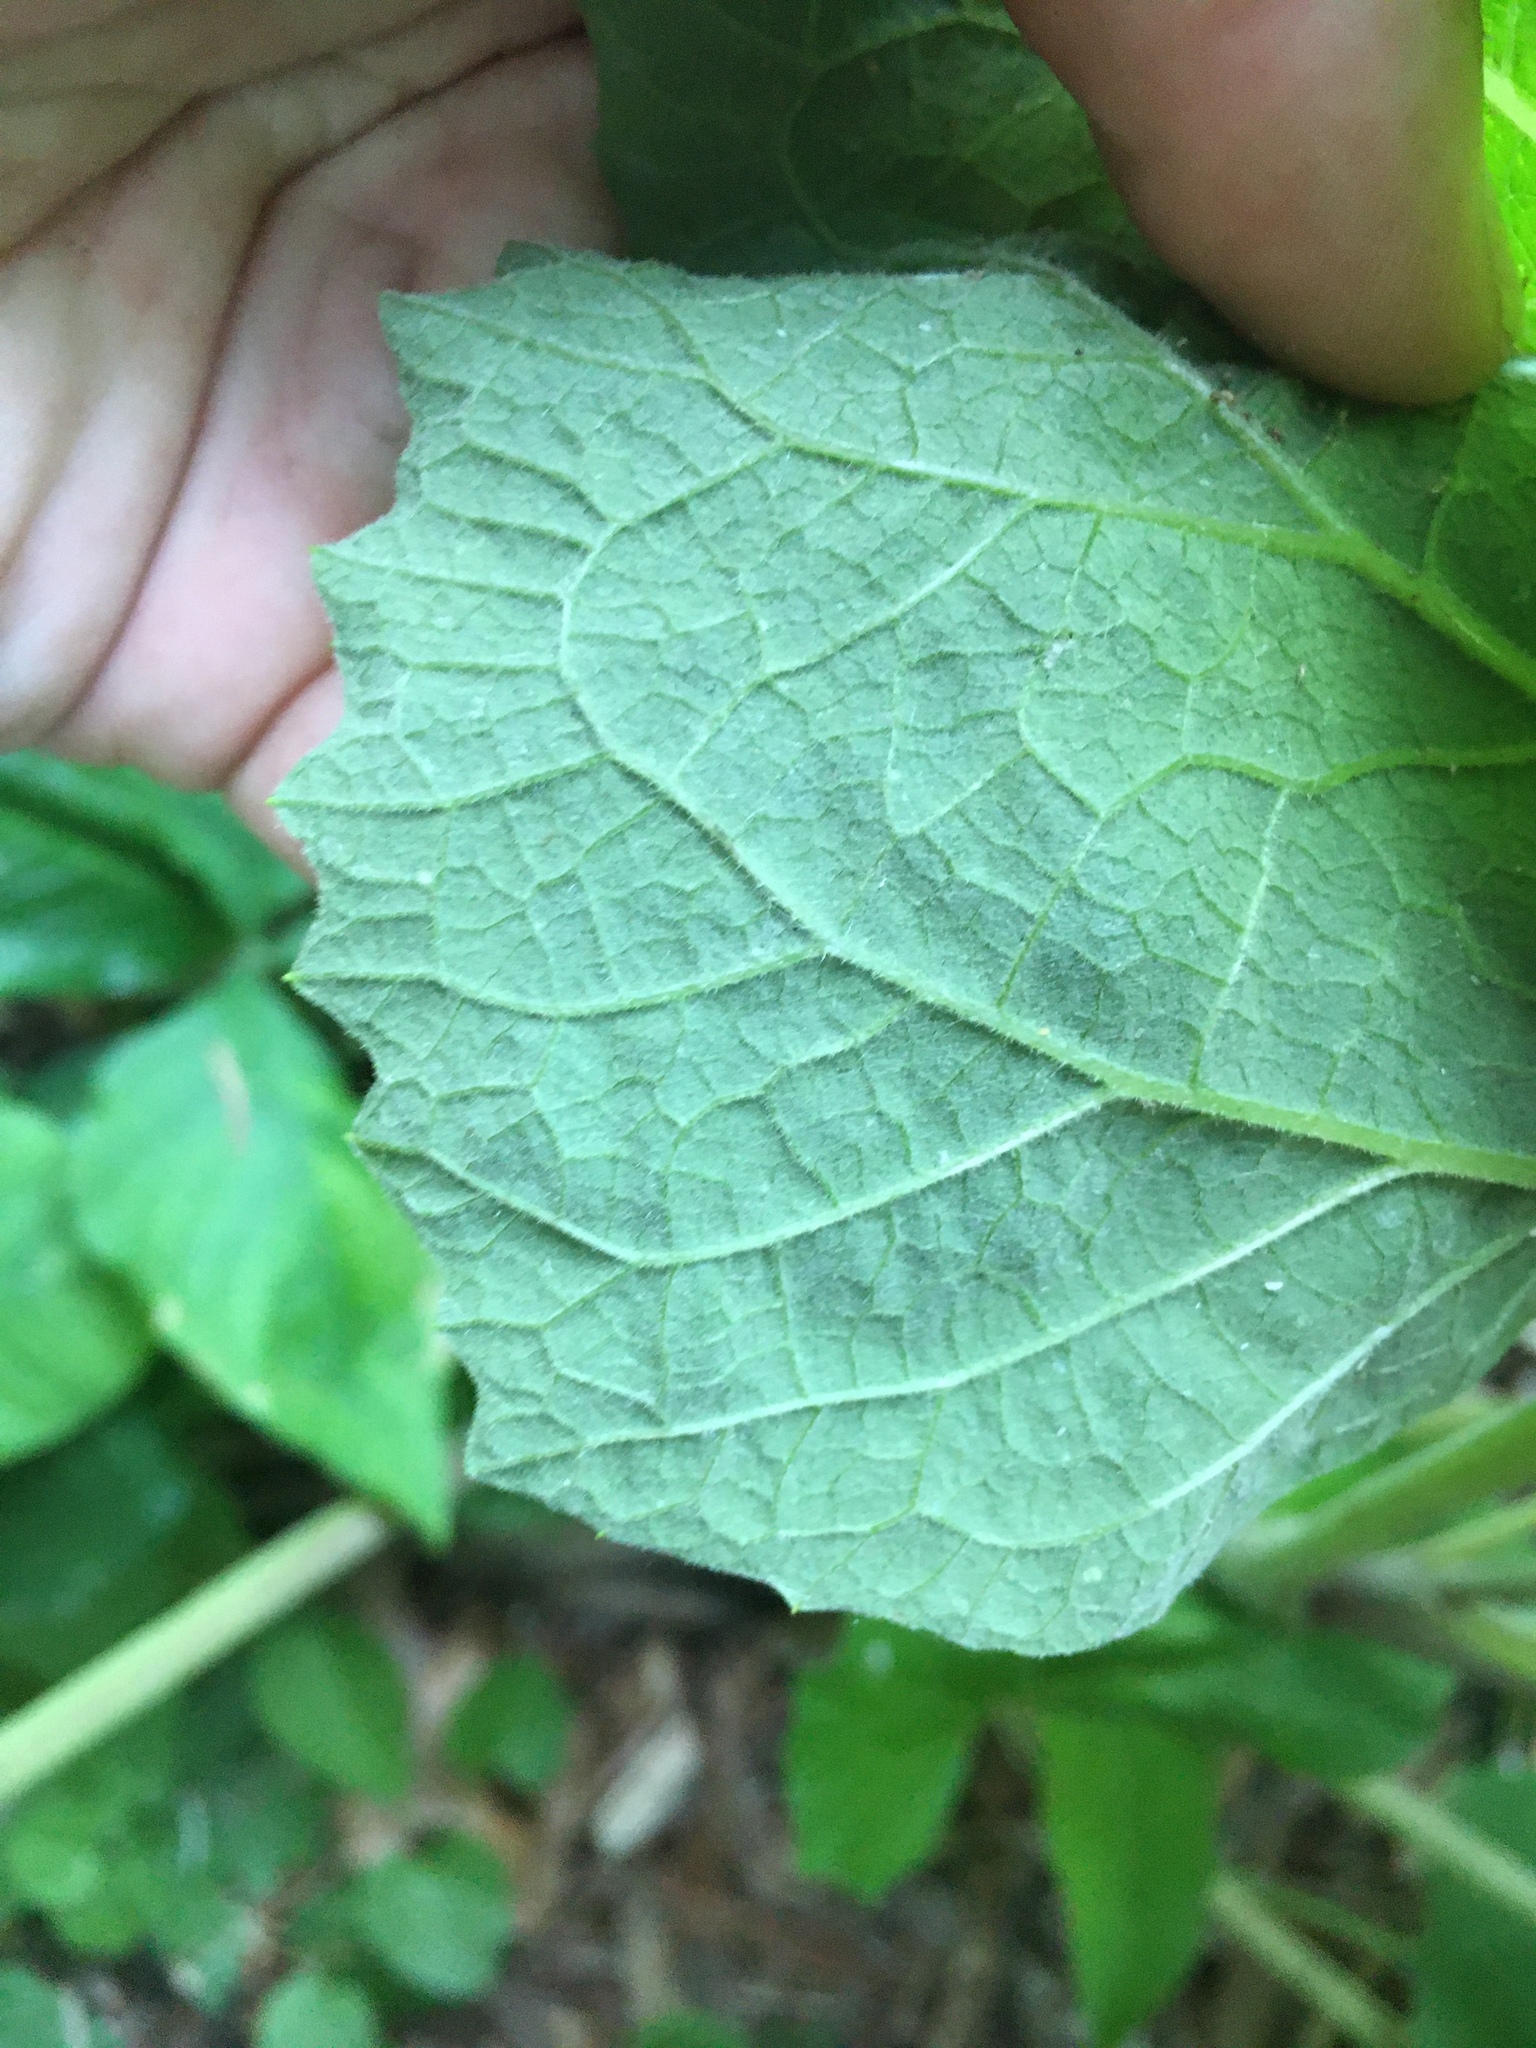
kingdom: Animalia
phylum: Arthropoda
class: Insecta
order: Diptera
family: Agromyzidae
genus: Liriomyza
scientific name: Liriomyza arctii
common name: Burdock leafminer
